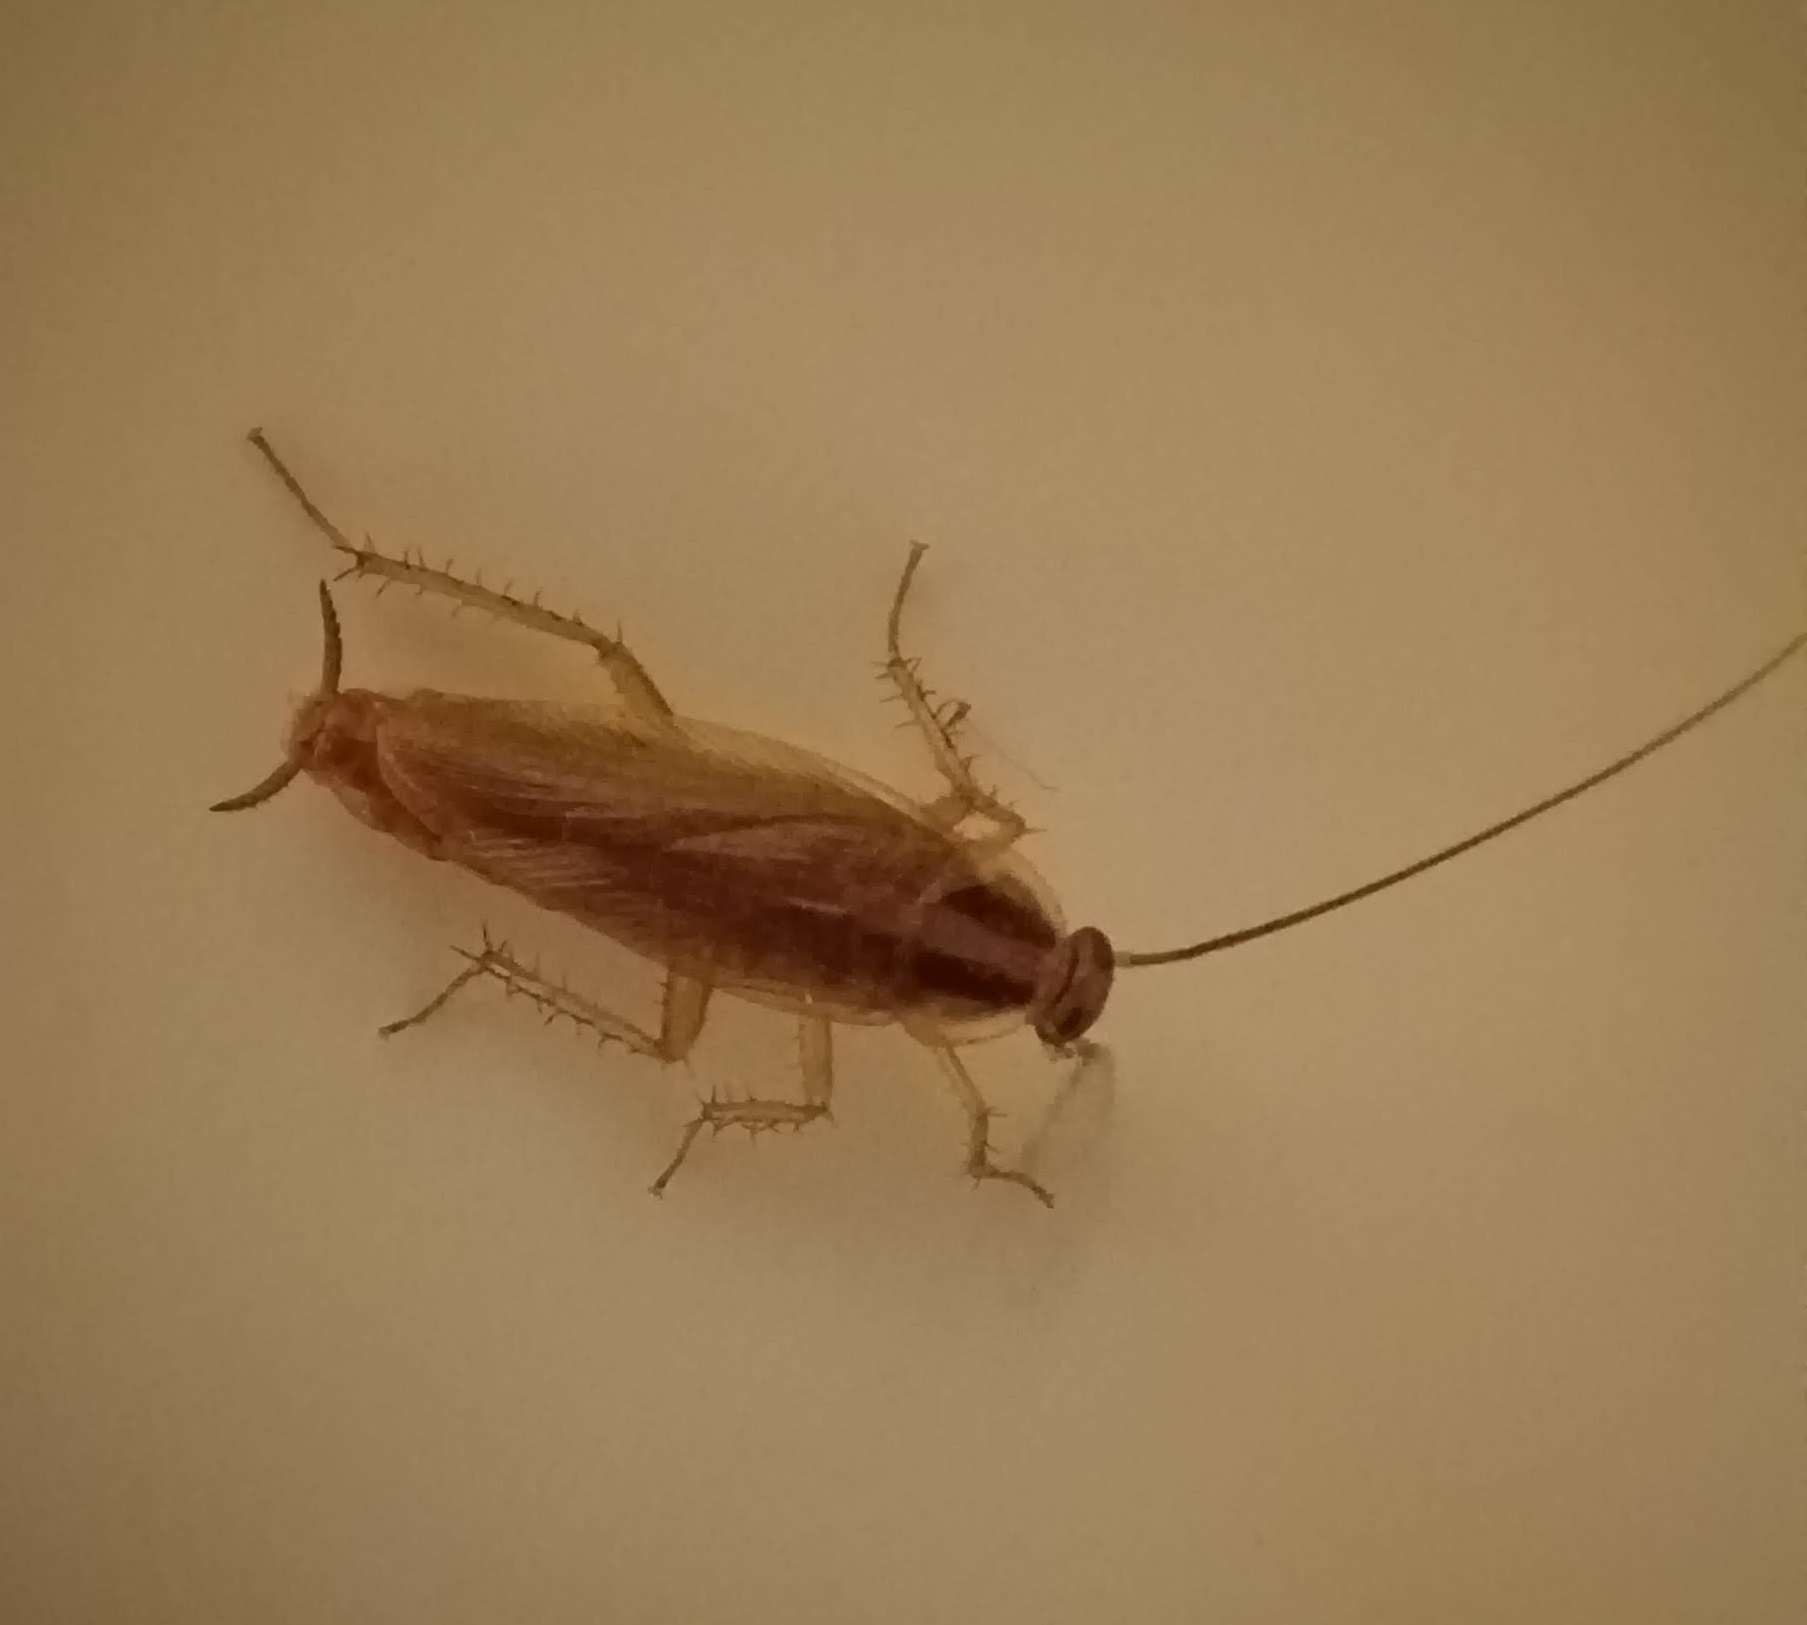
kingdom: Animalia
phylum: Arthropoda
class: Insecta
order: Blattodea
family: Ectobiidae
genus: Blattella
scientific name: Blattella germanica
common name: German cockroach
